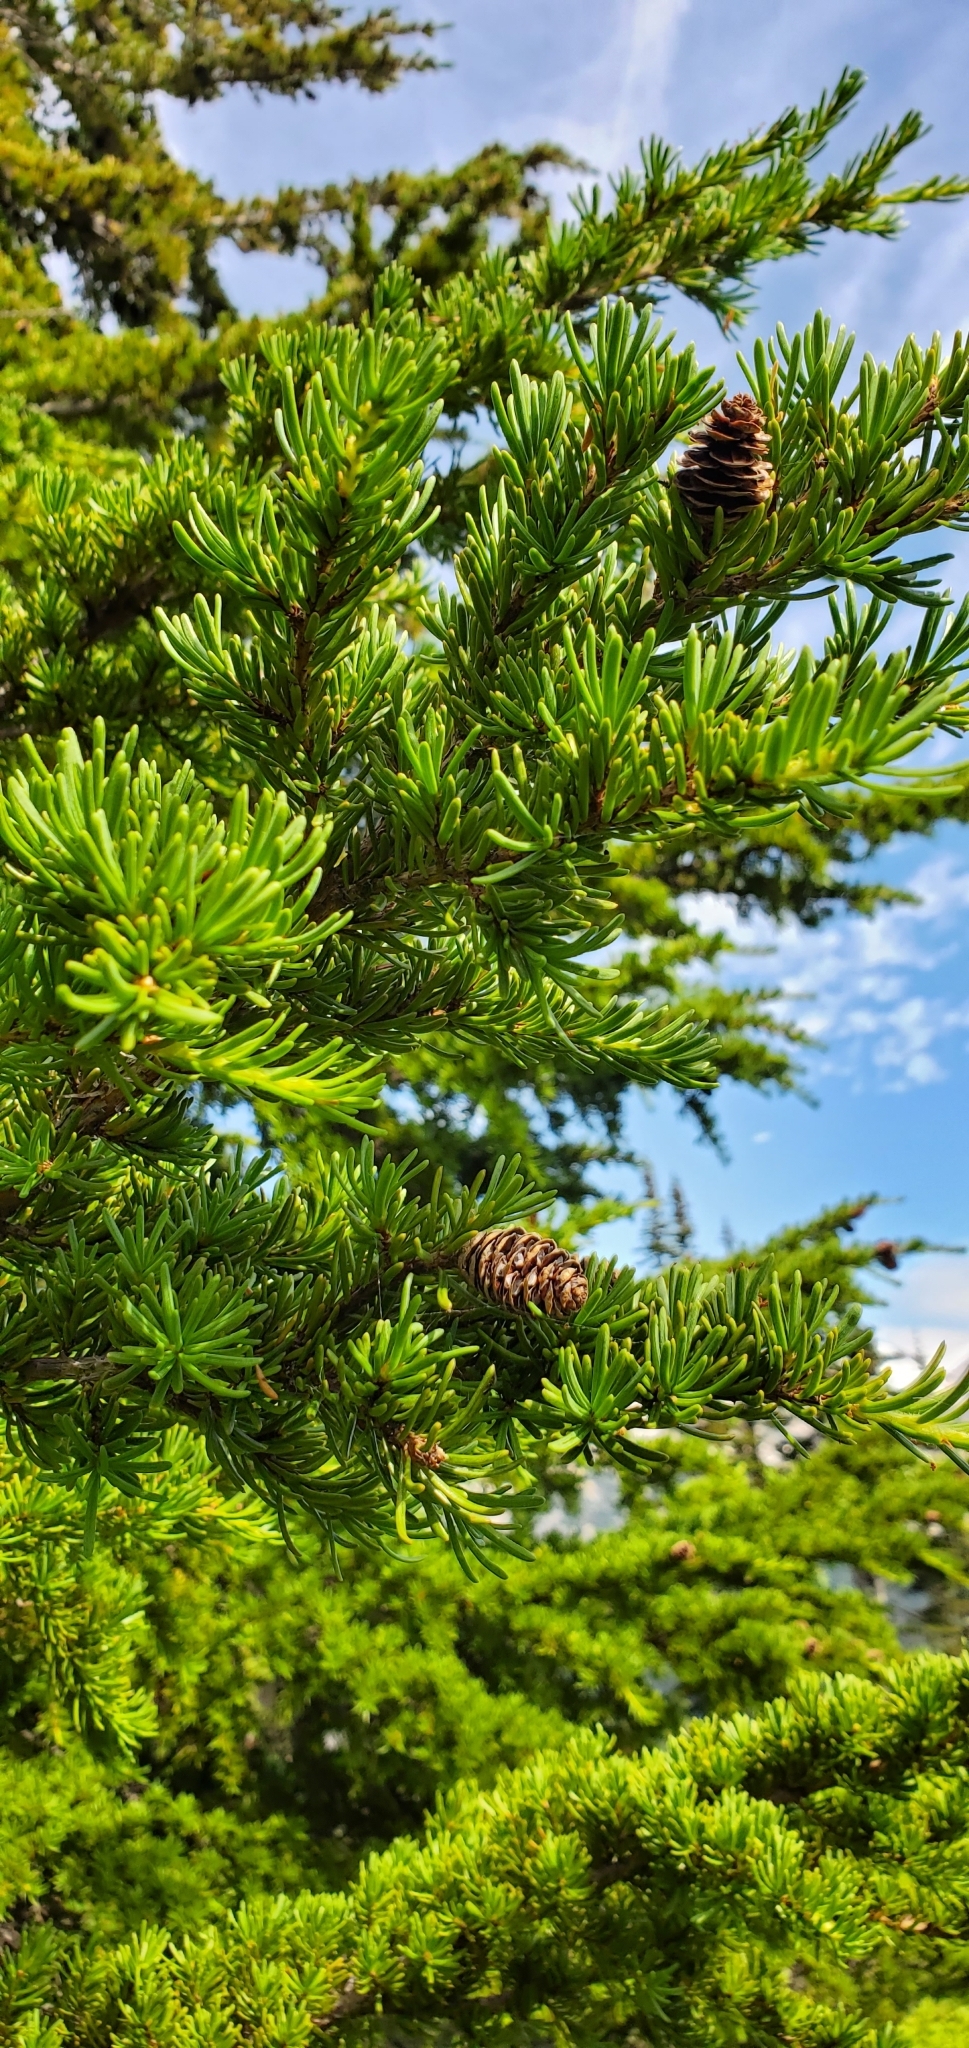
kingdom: Plantae
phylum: Tracheophyta
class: Pinopsida
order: Pinales
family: Pinaceae
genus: Tsuga
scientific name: Tsuga mertensiana
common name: Mountain hemlock
